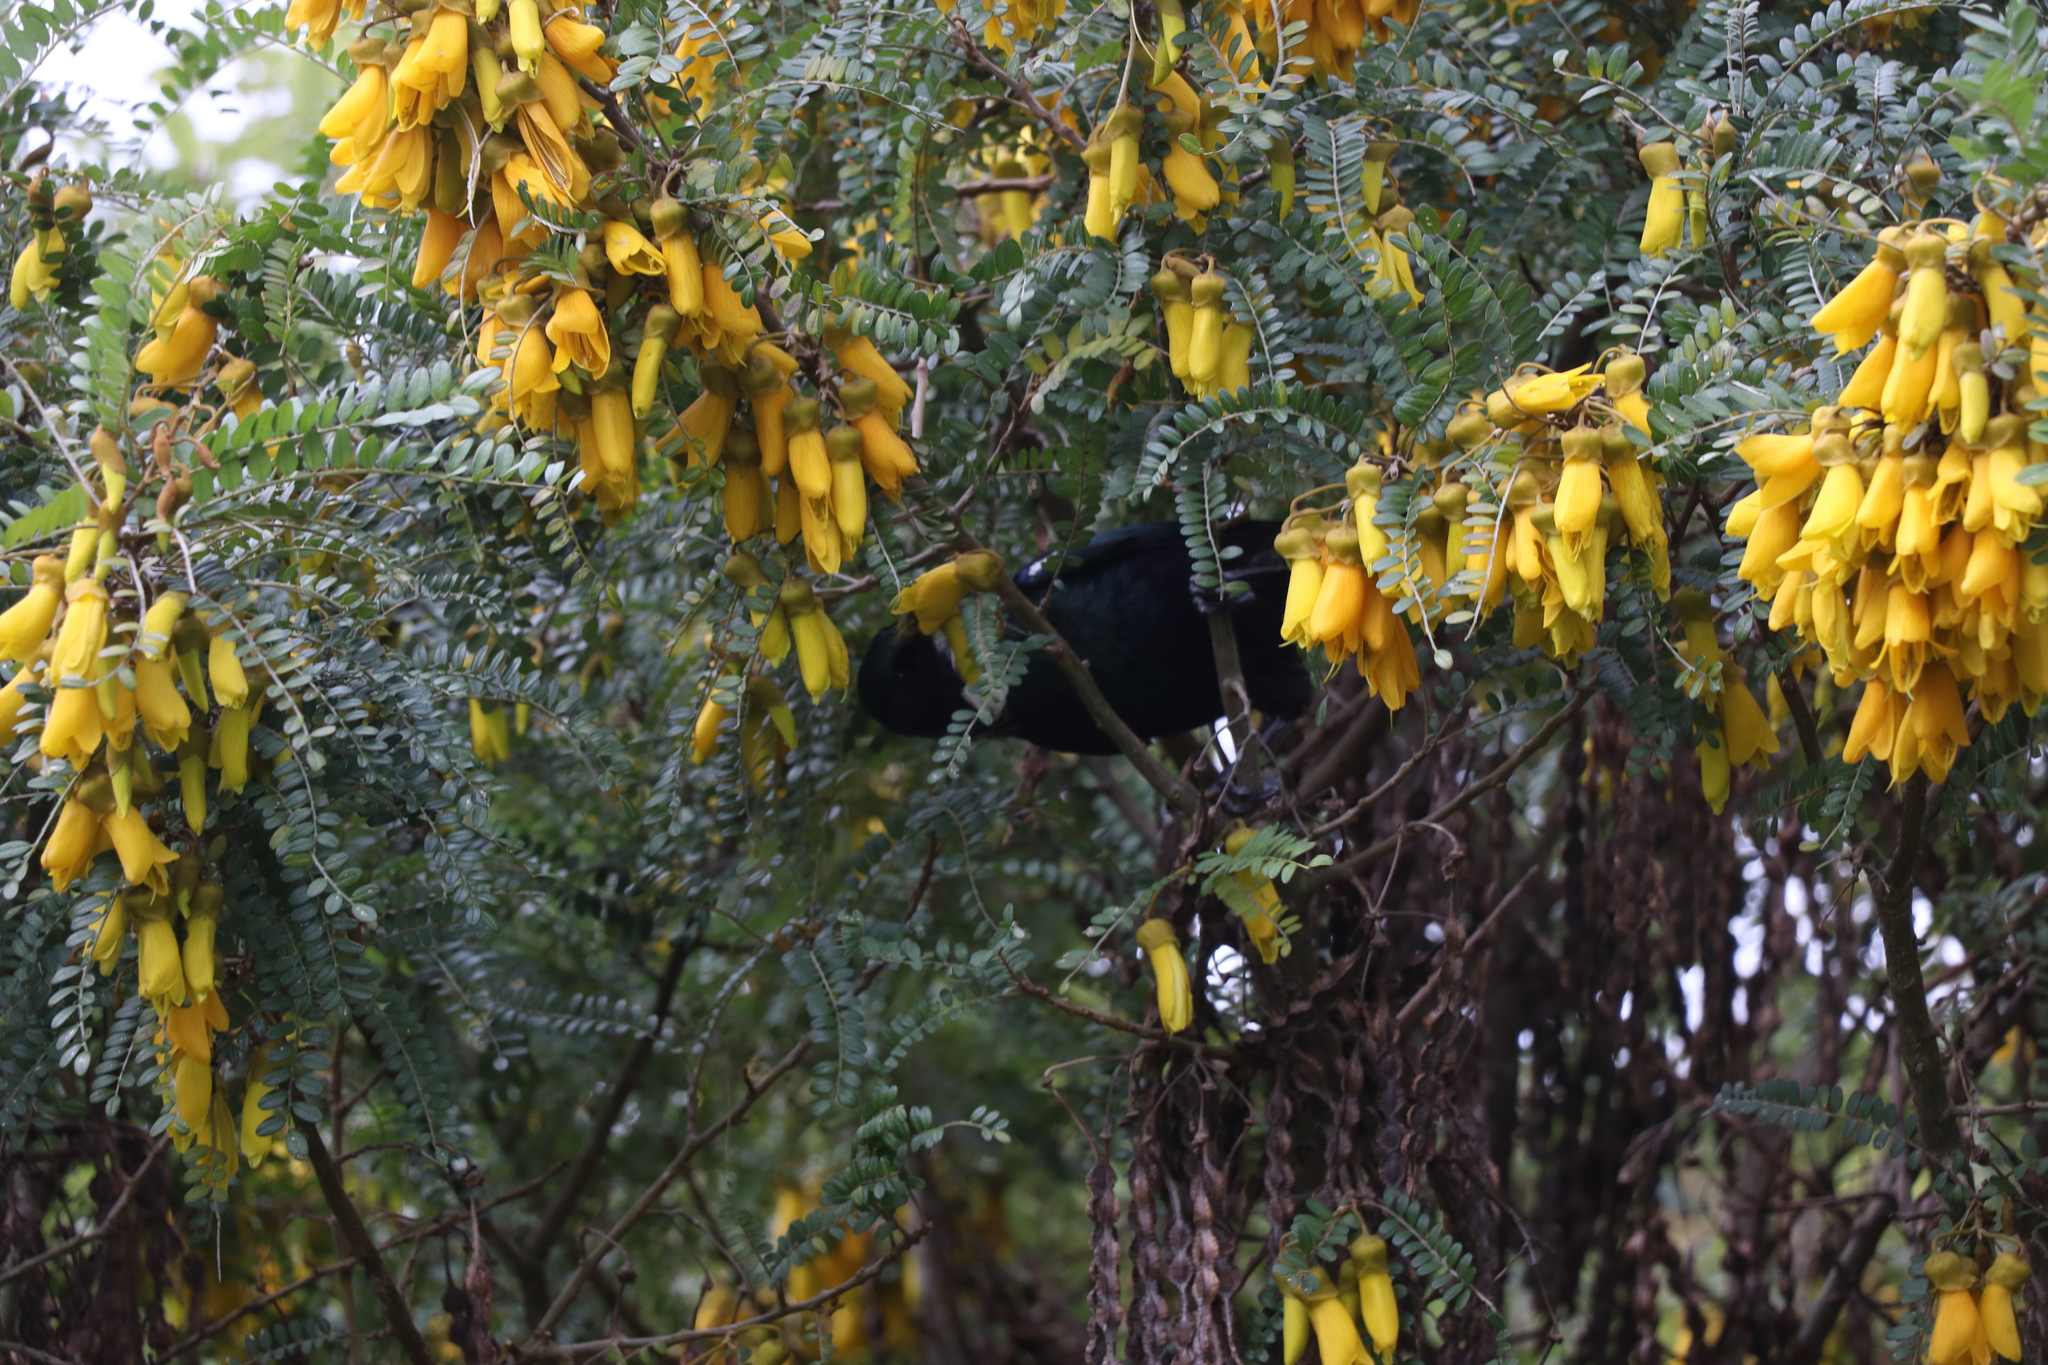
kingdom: Animalia
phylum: Chordata
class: Aves
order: Passeriformes
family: Meliphagidae
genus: Prosthemadera
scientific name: Prosthemadera novaeseelandiae
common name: Tui
